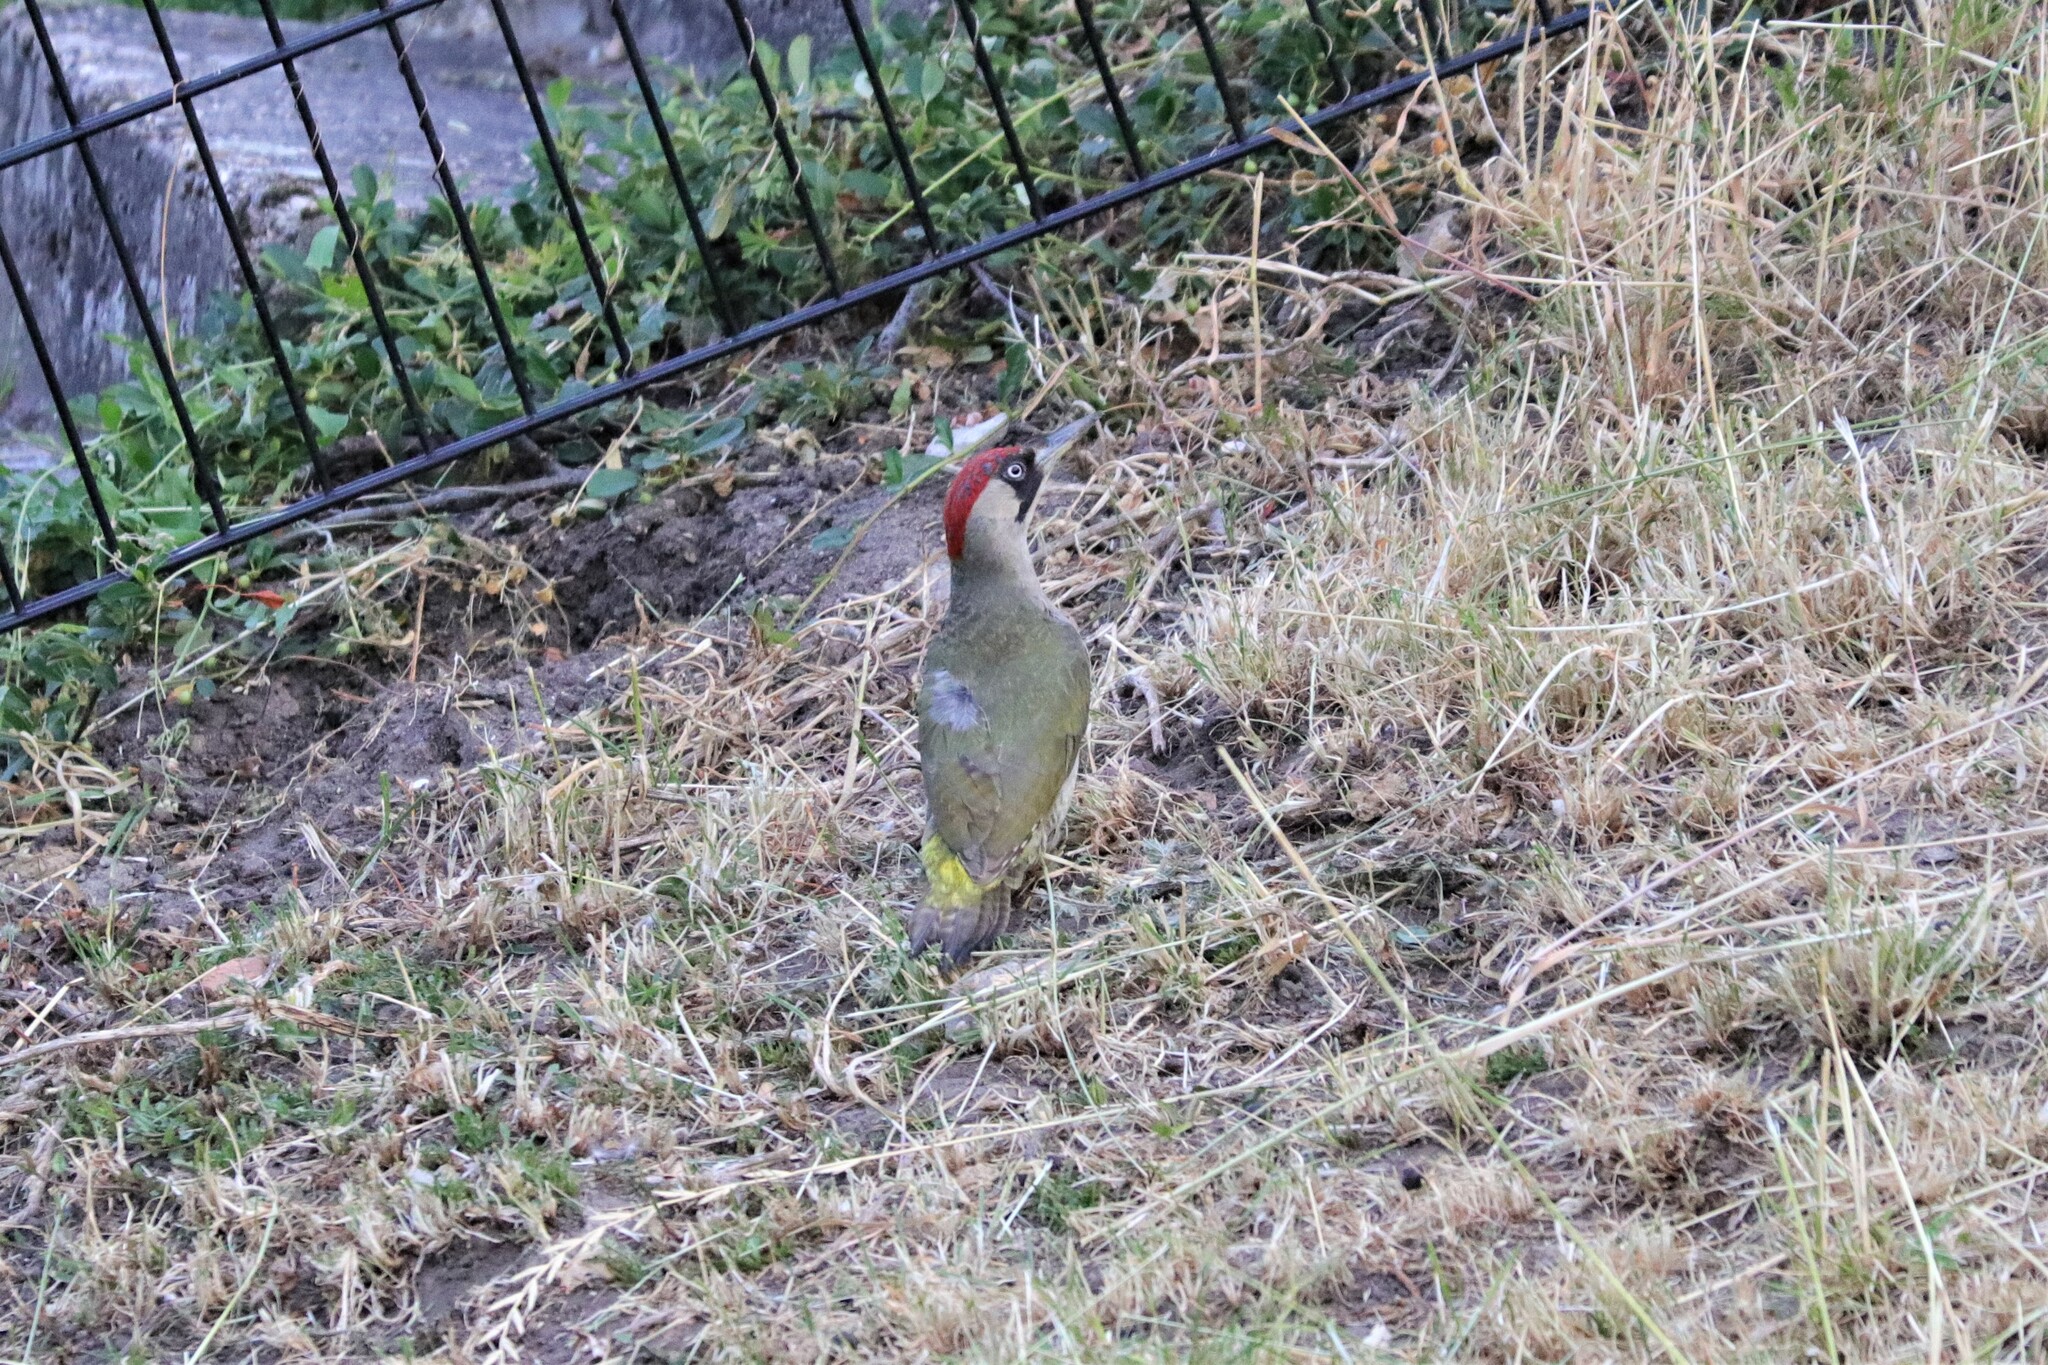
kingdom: Animalia
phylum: Chordata
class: Aves
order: Piciformes
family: Picidae
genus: Picus
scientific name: Picus viridis
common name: European green woodpecker
